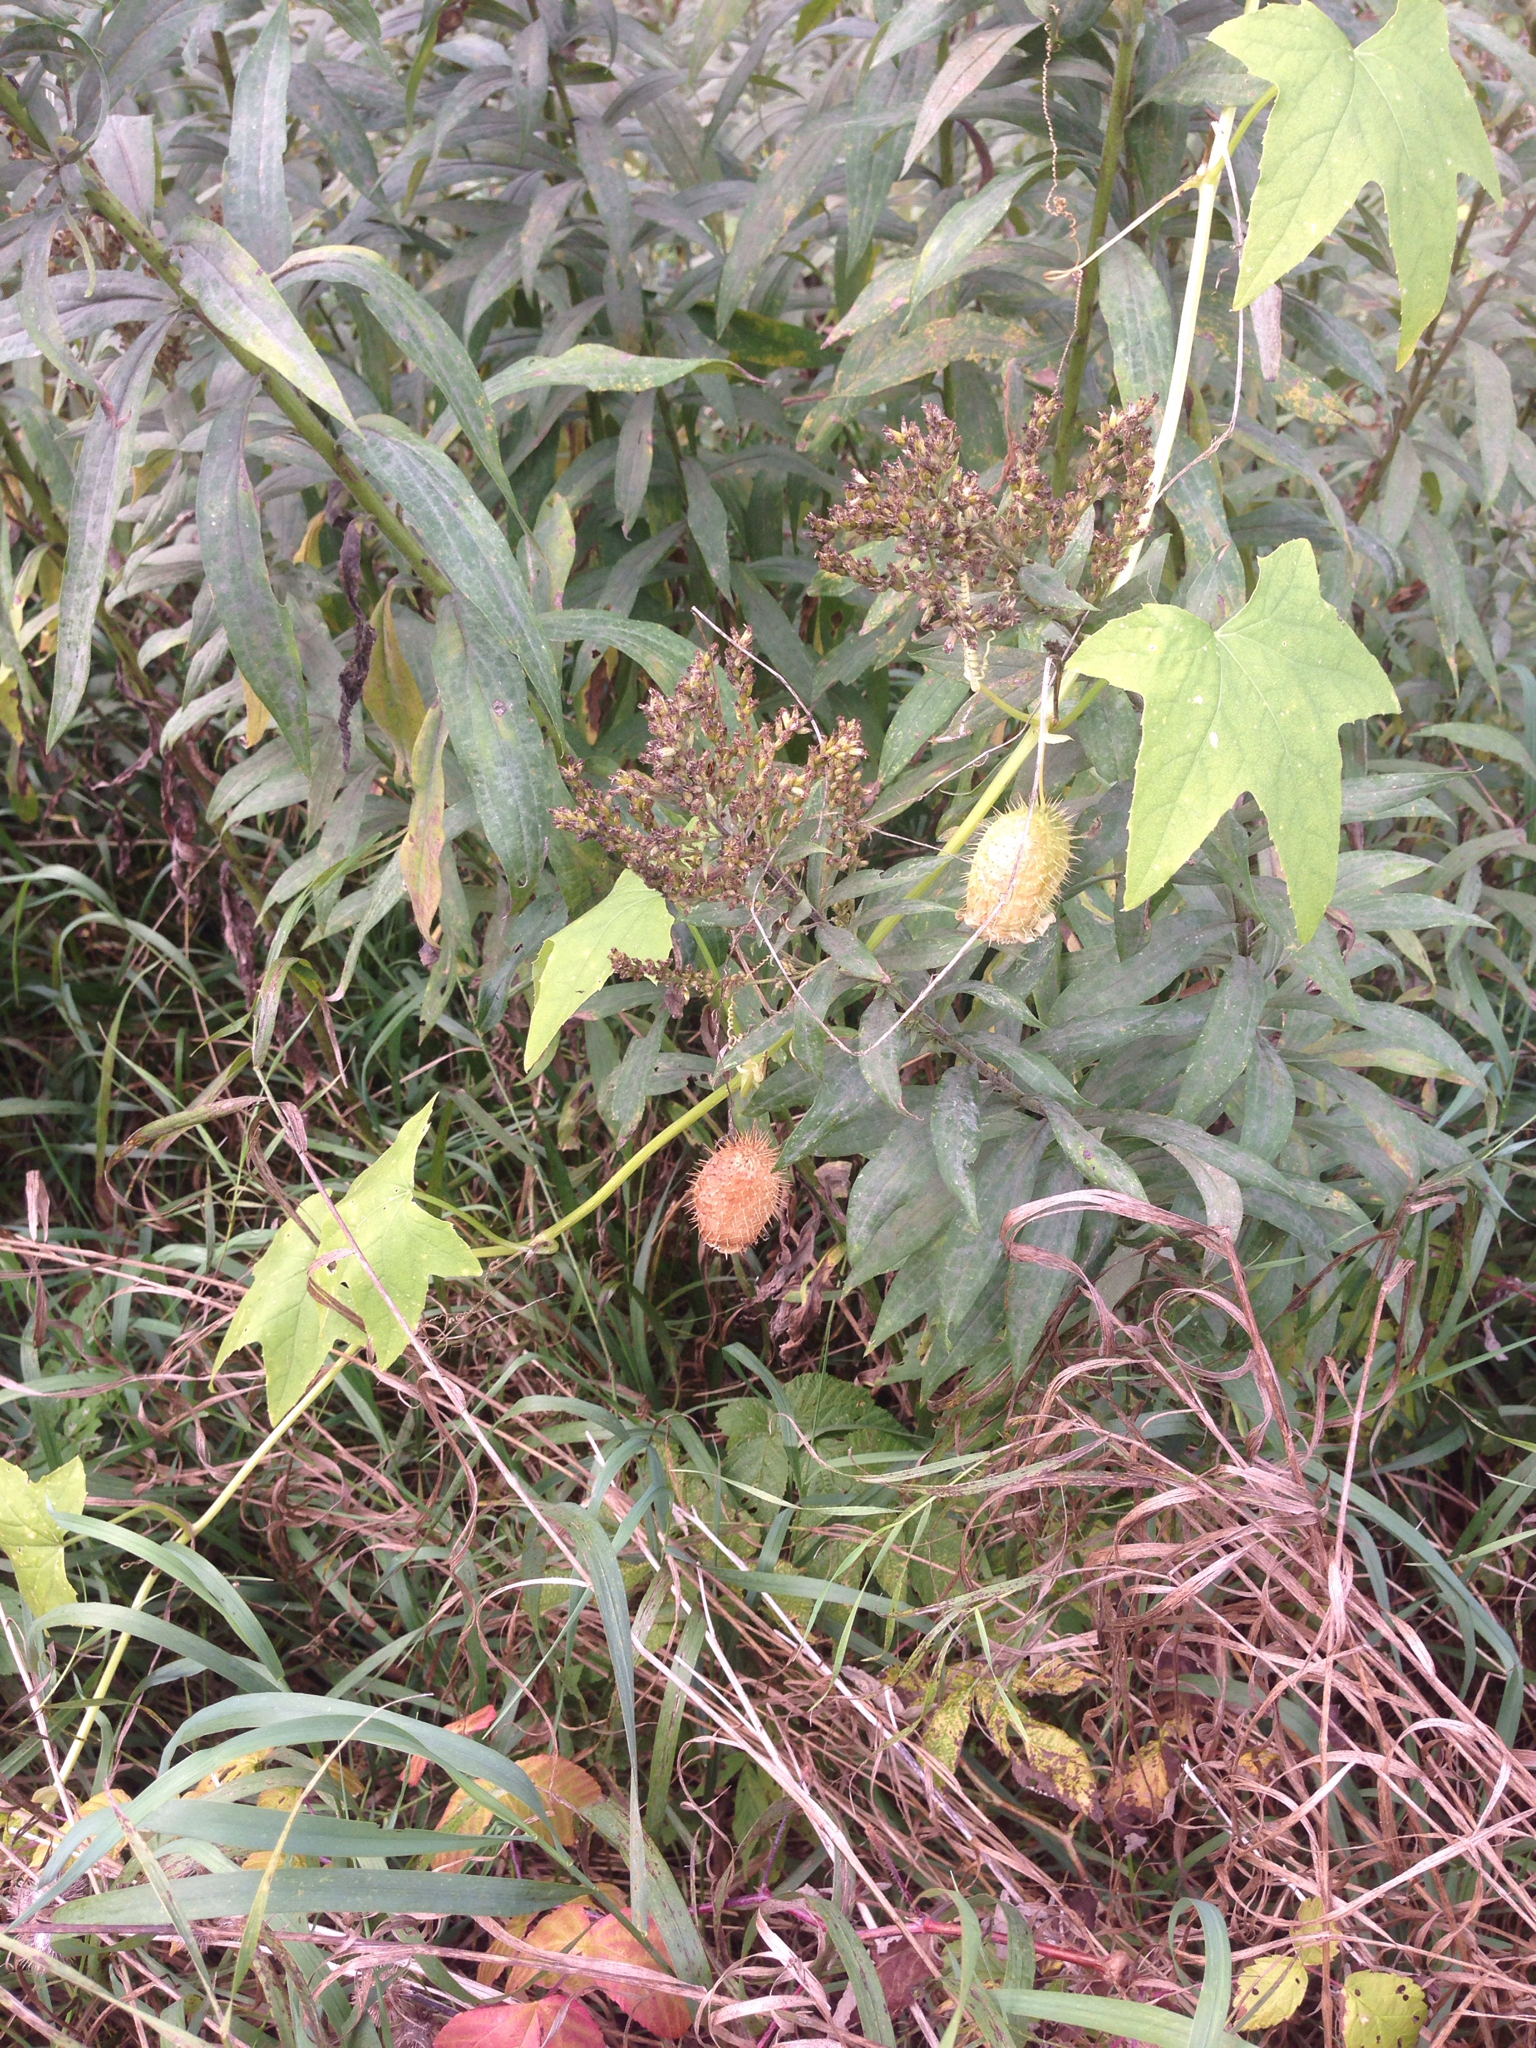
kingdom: Plantae
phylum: Tracheophyta
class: Magnoliopsida
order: Cucurbitales
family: Cucurbitaceae
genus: Echinocystis
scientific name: Echinocystis lobata
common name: Wild cucumber
